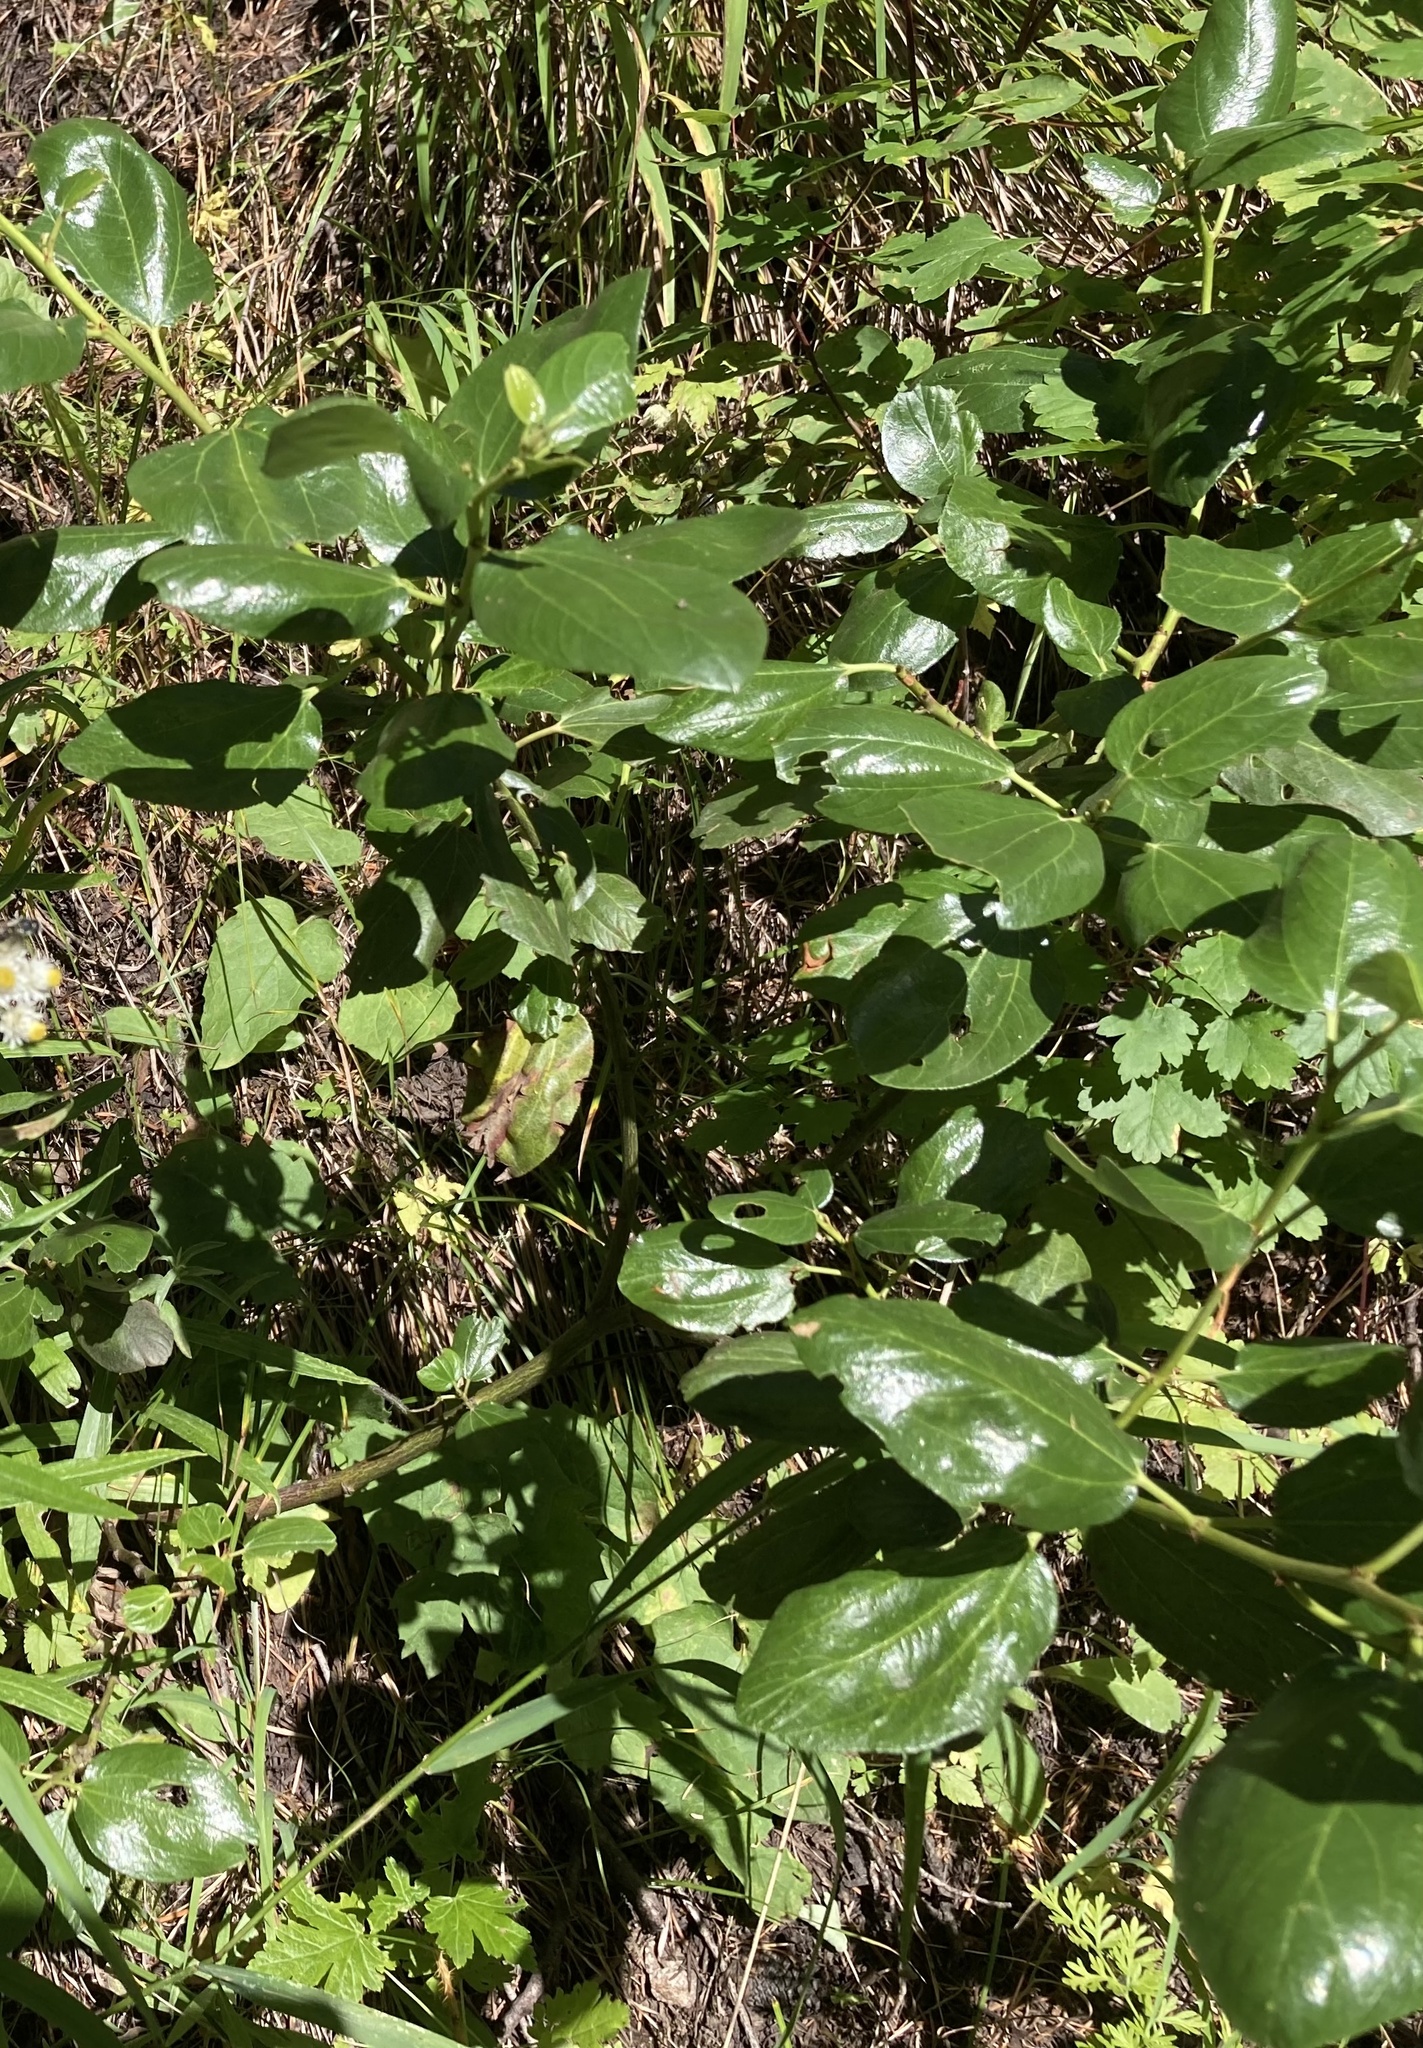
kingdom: Plantae
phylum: Tracheophyta
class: Magnoliopsida
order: Rosales
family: Rhamnaceae
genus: Ceanothus
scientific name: Ceanothus velutinus
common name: Snowbrush
